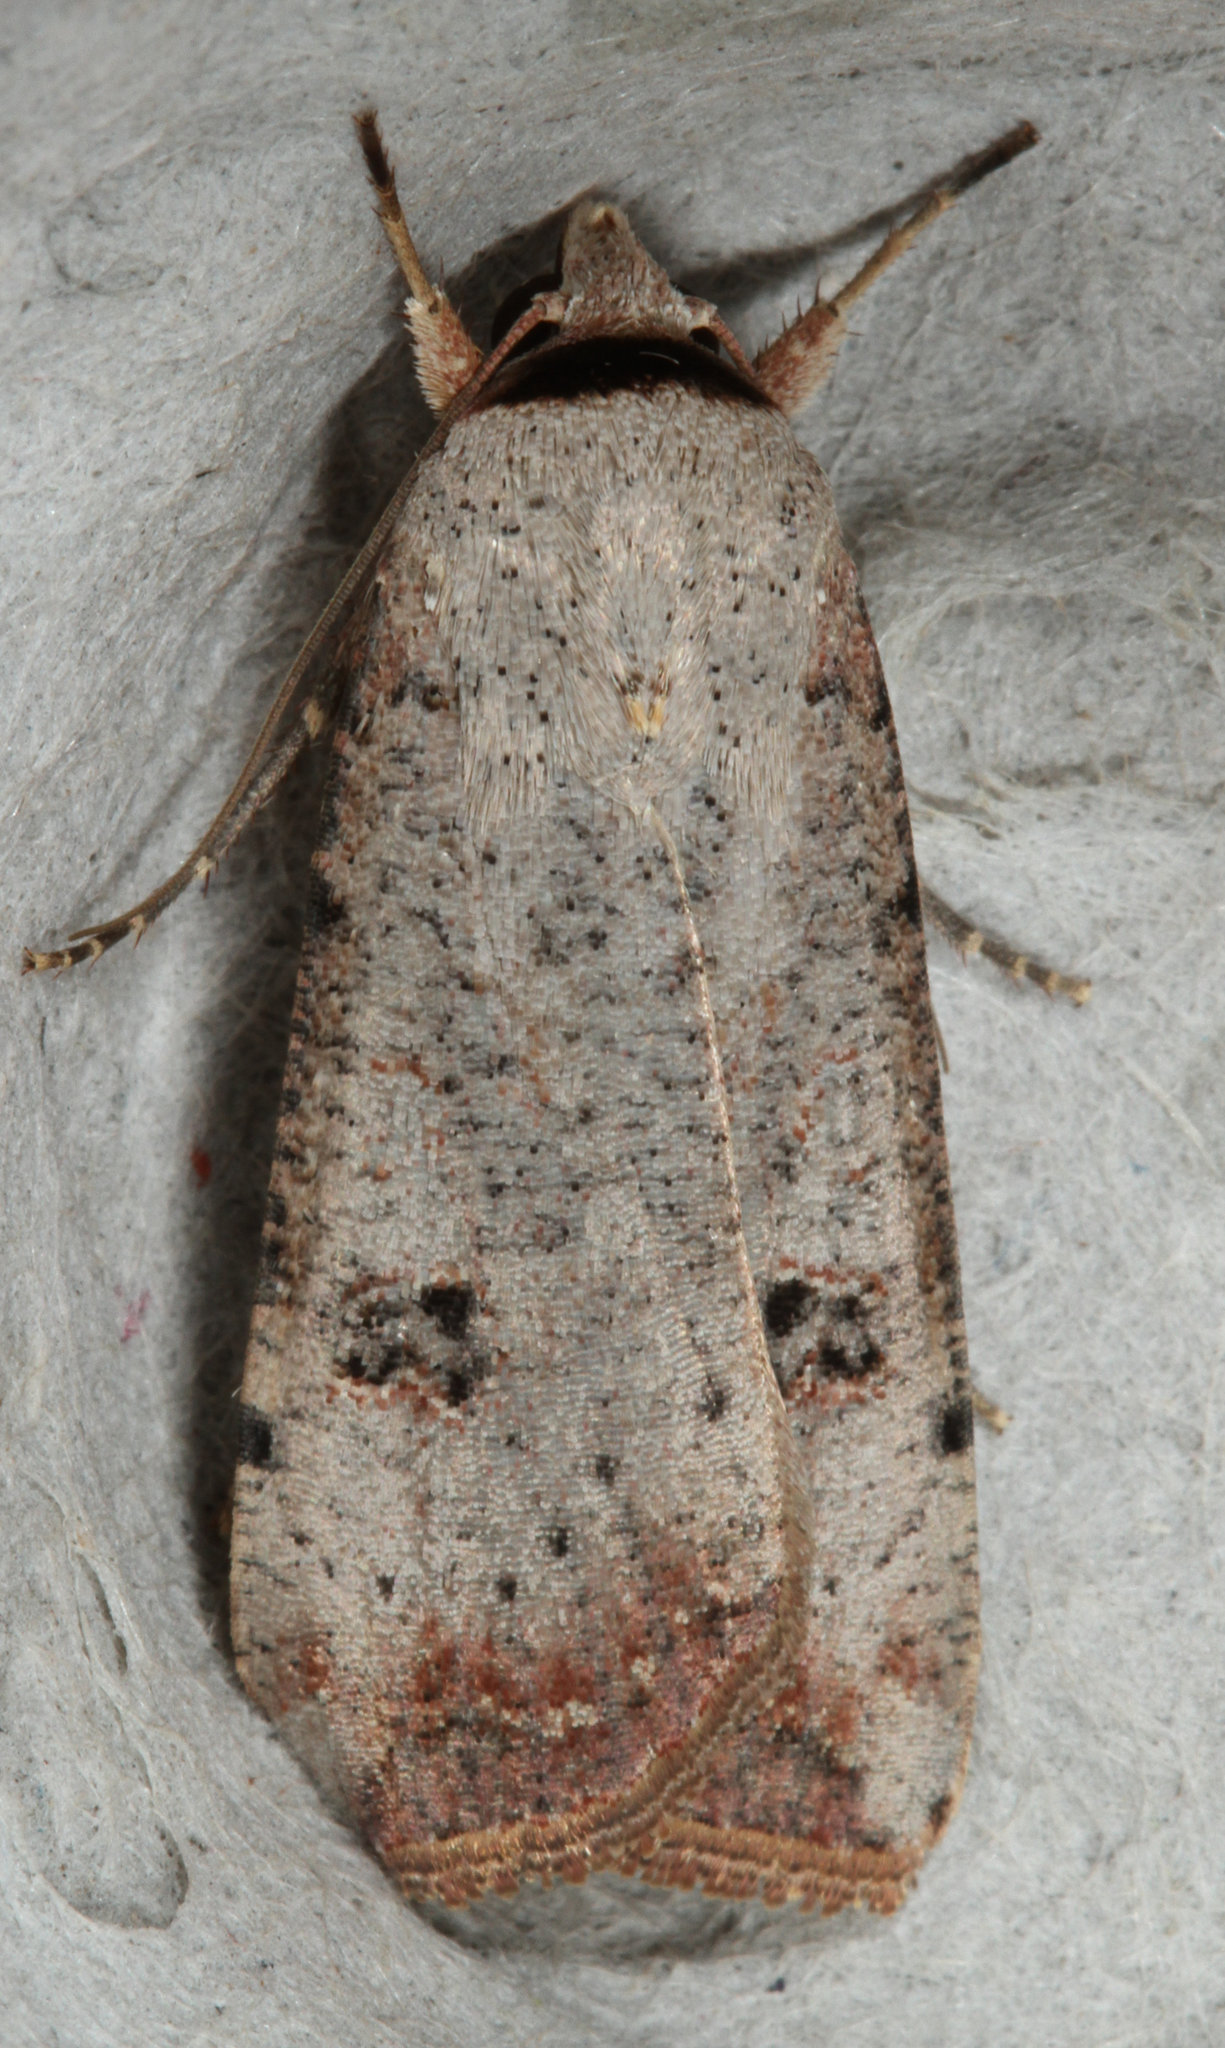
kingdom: Animalia
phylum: Arthropoda
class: Insecta
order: Lepidoptera
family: Noctuidae
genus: Anicla
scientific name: Anicla infecta
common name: Green cutworm
